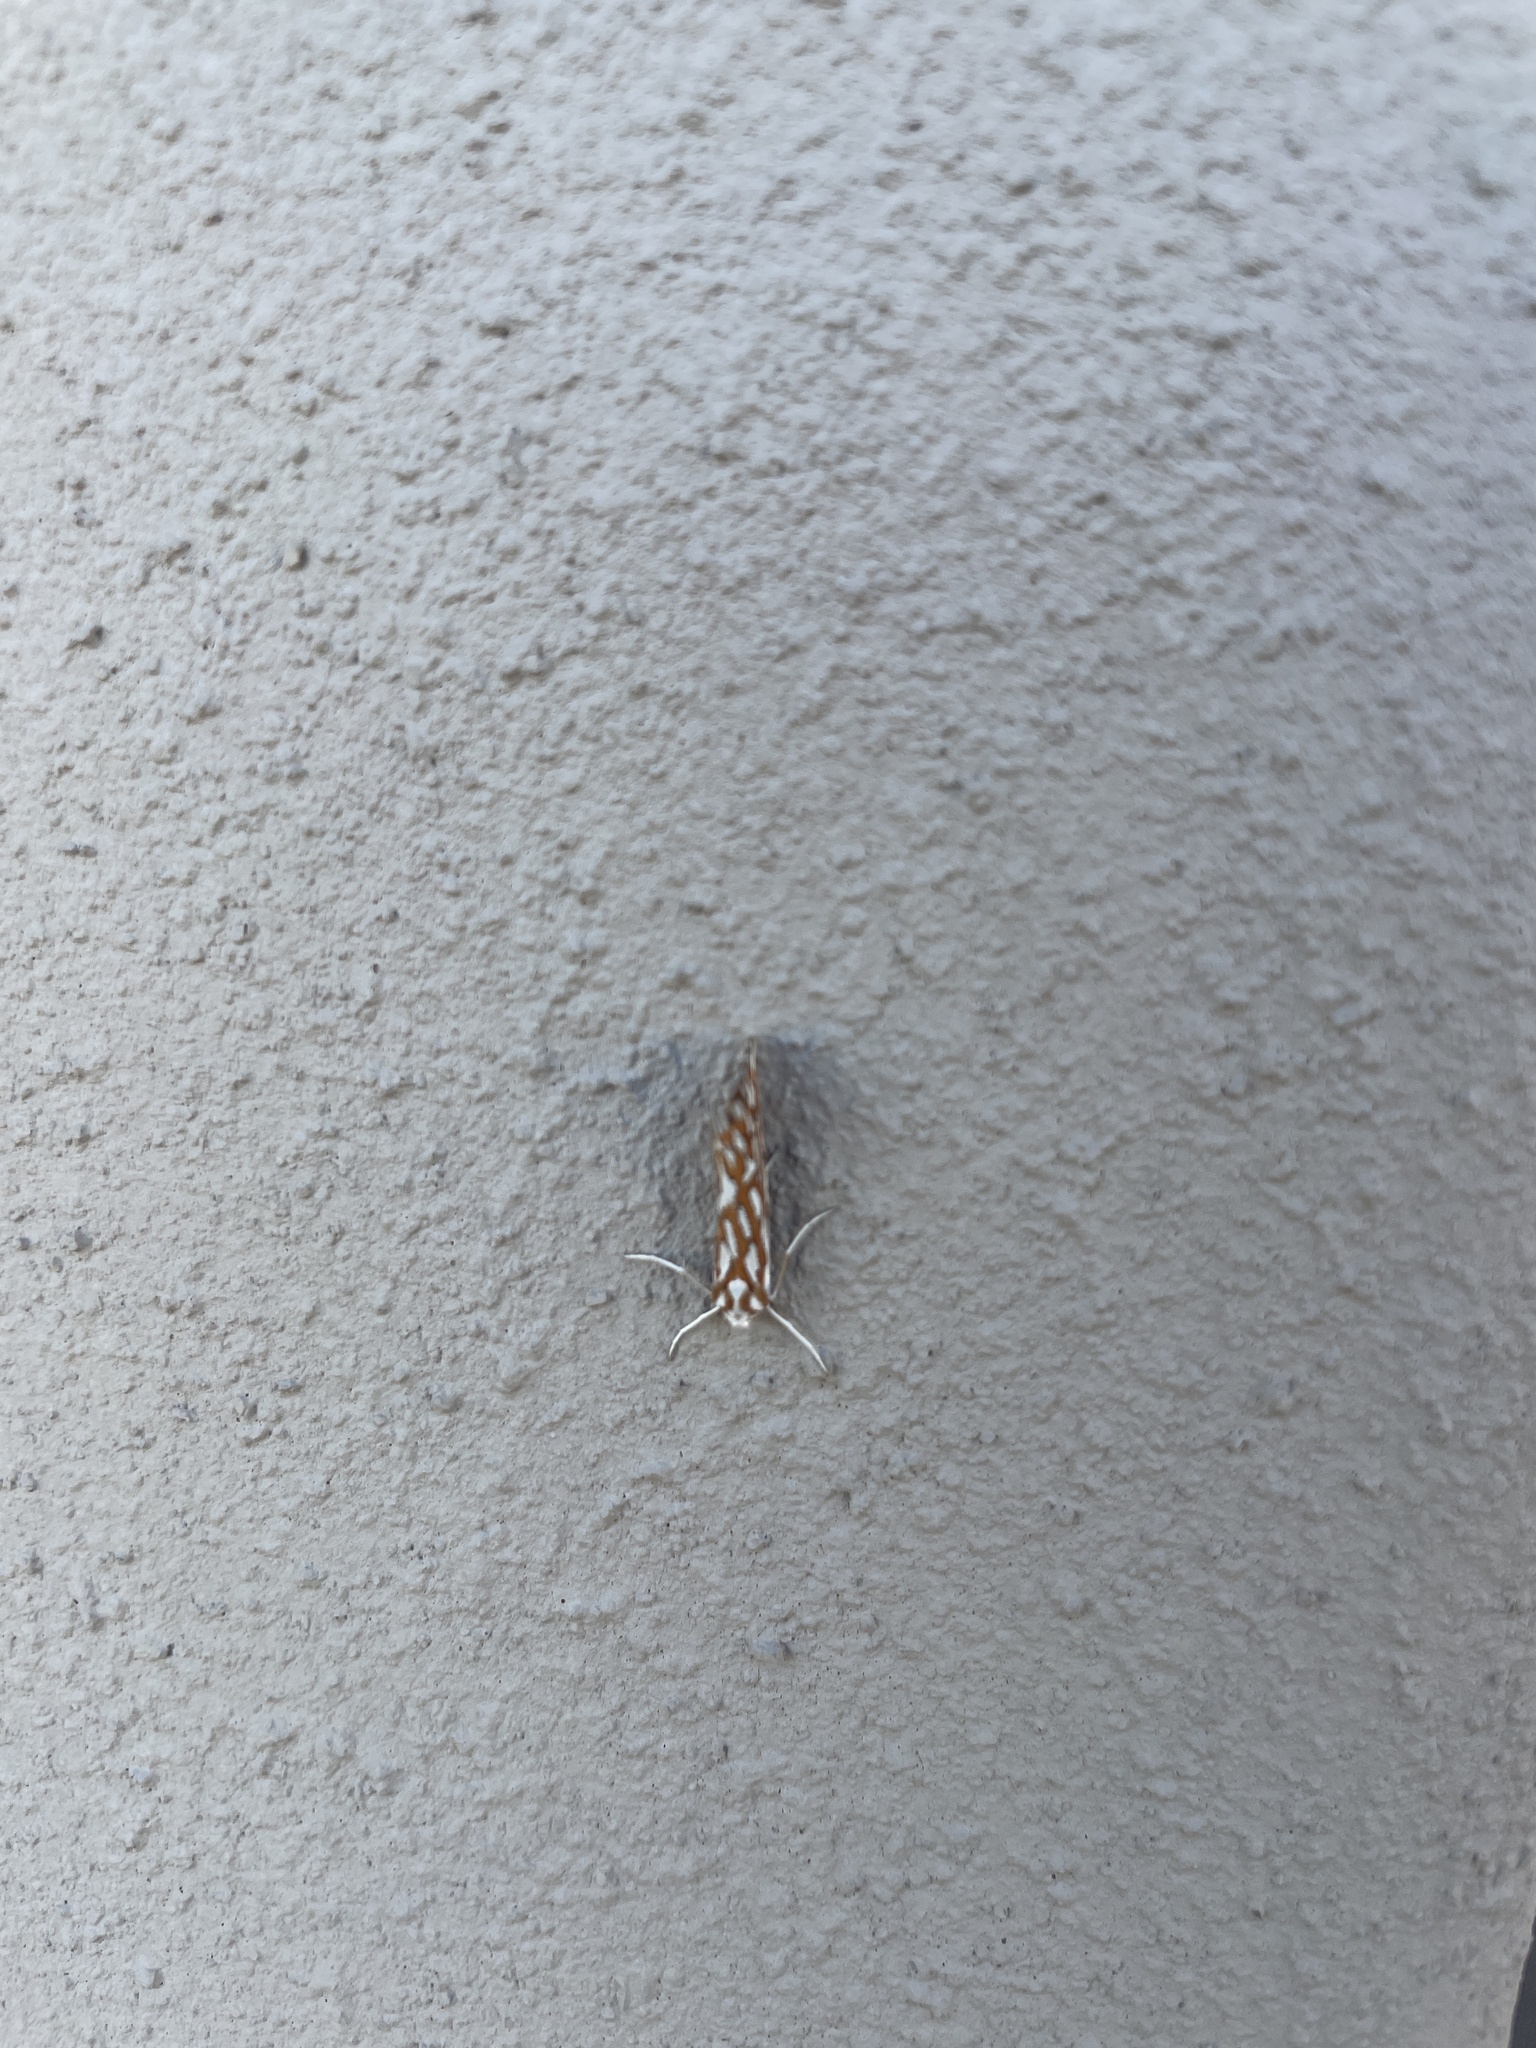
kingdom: Animalia
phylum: Arthropoda
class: Insecta
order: Lepidoptera
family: Geometridae
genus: Argyrophora
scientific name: Argyrophora trofonia
